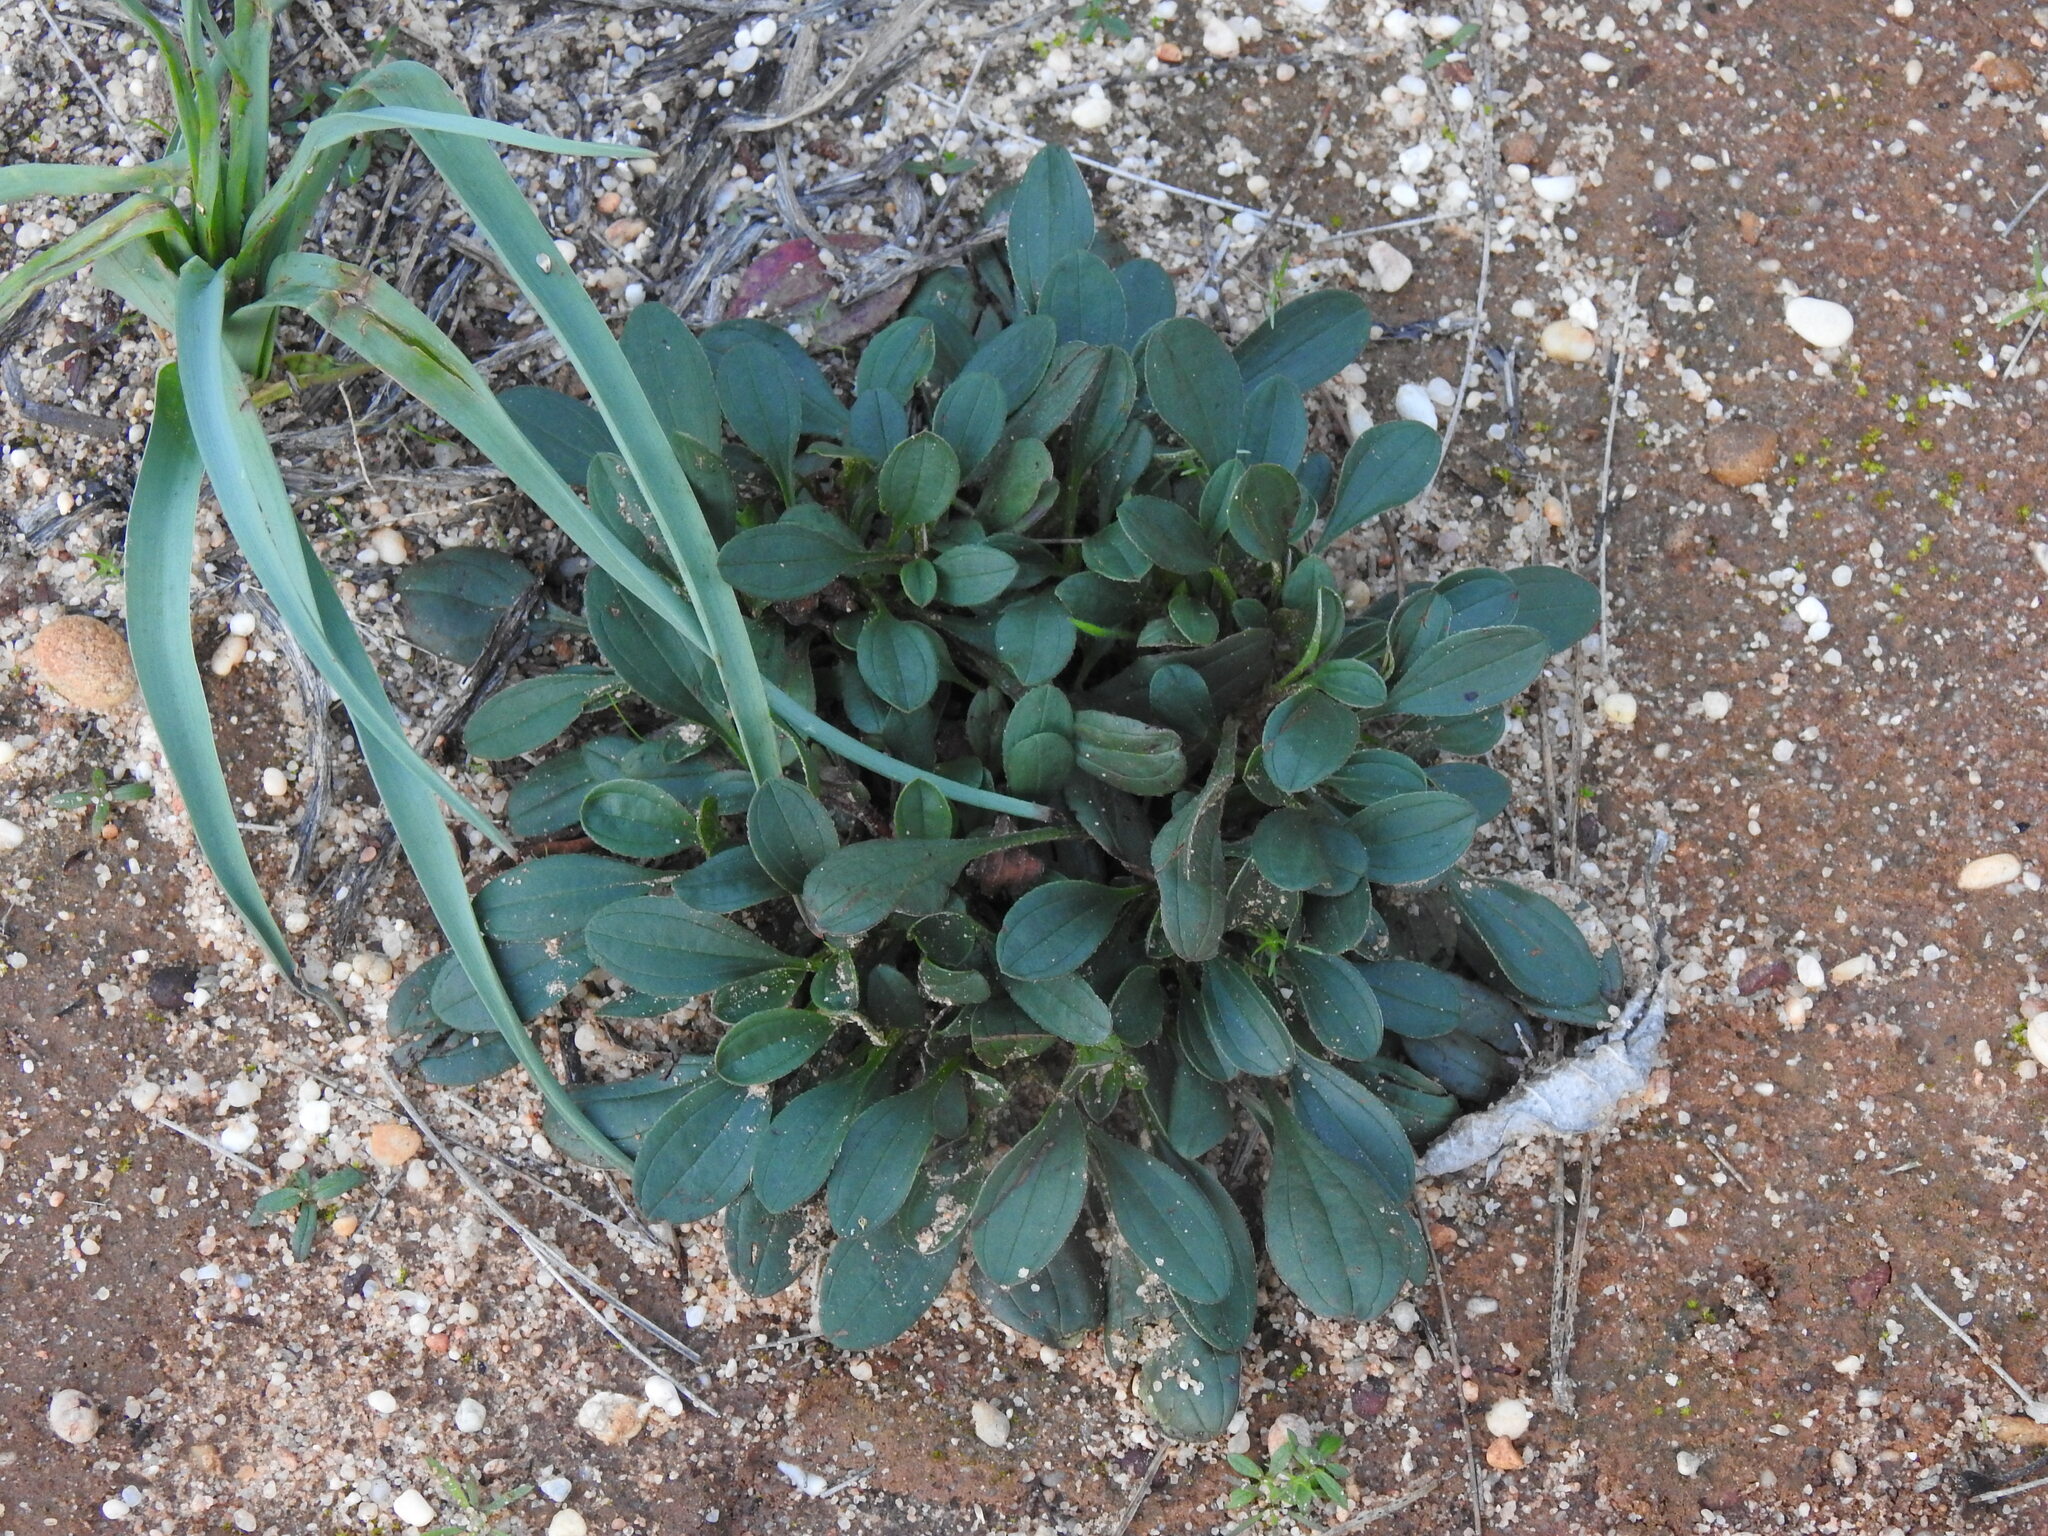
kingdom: Plantae
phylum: Tracheophyta
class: Magnoliopsida
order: Malvales
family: Cistaceae
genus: Tuberaria
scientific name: Tuberaria globulariifolia
